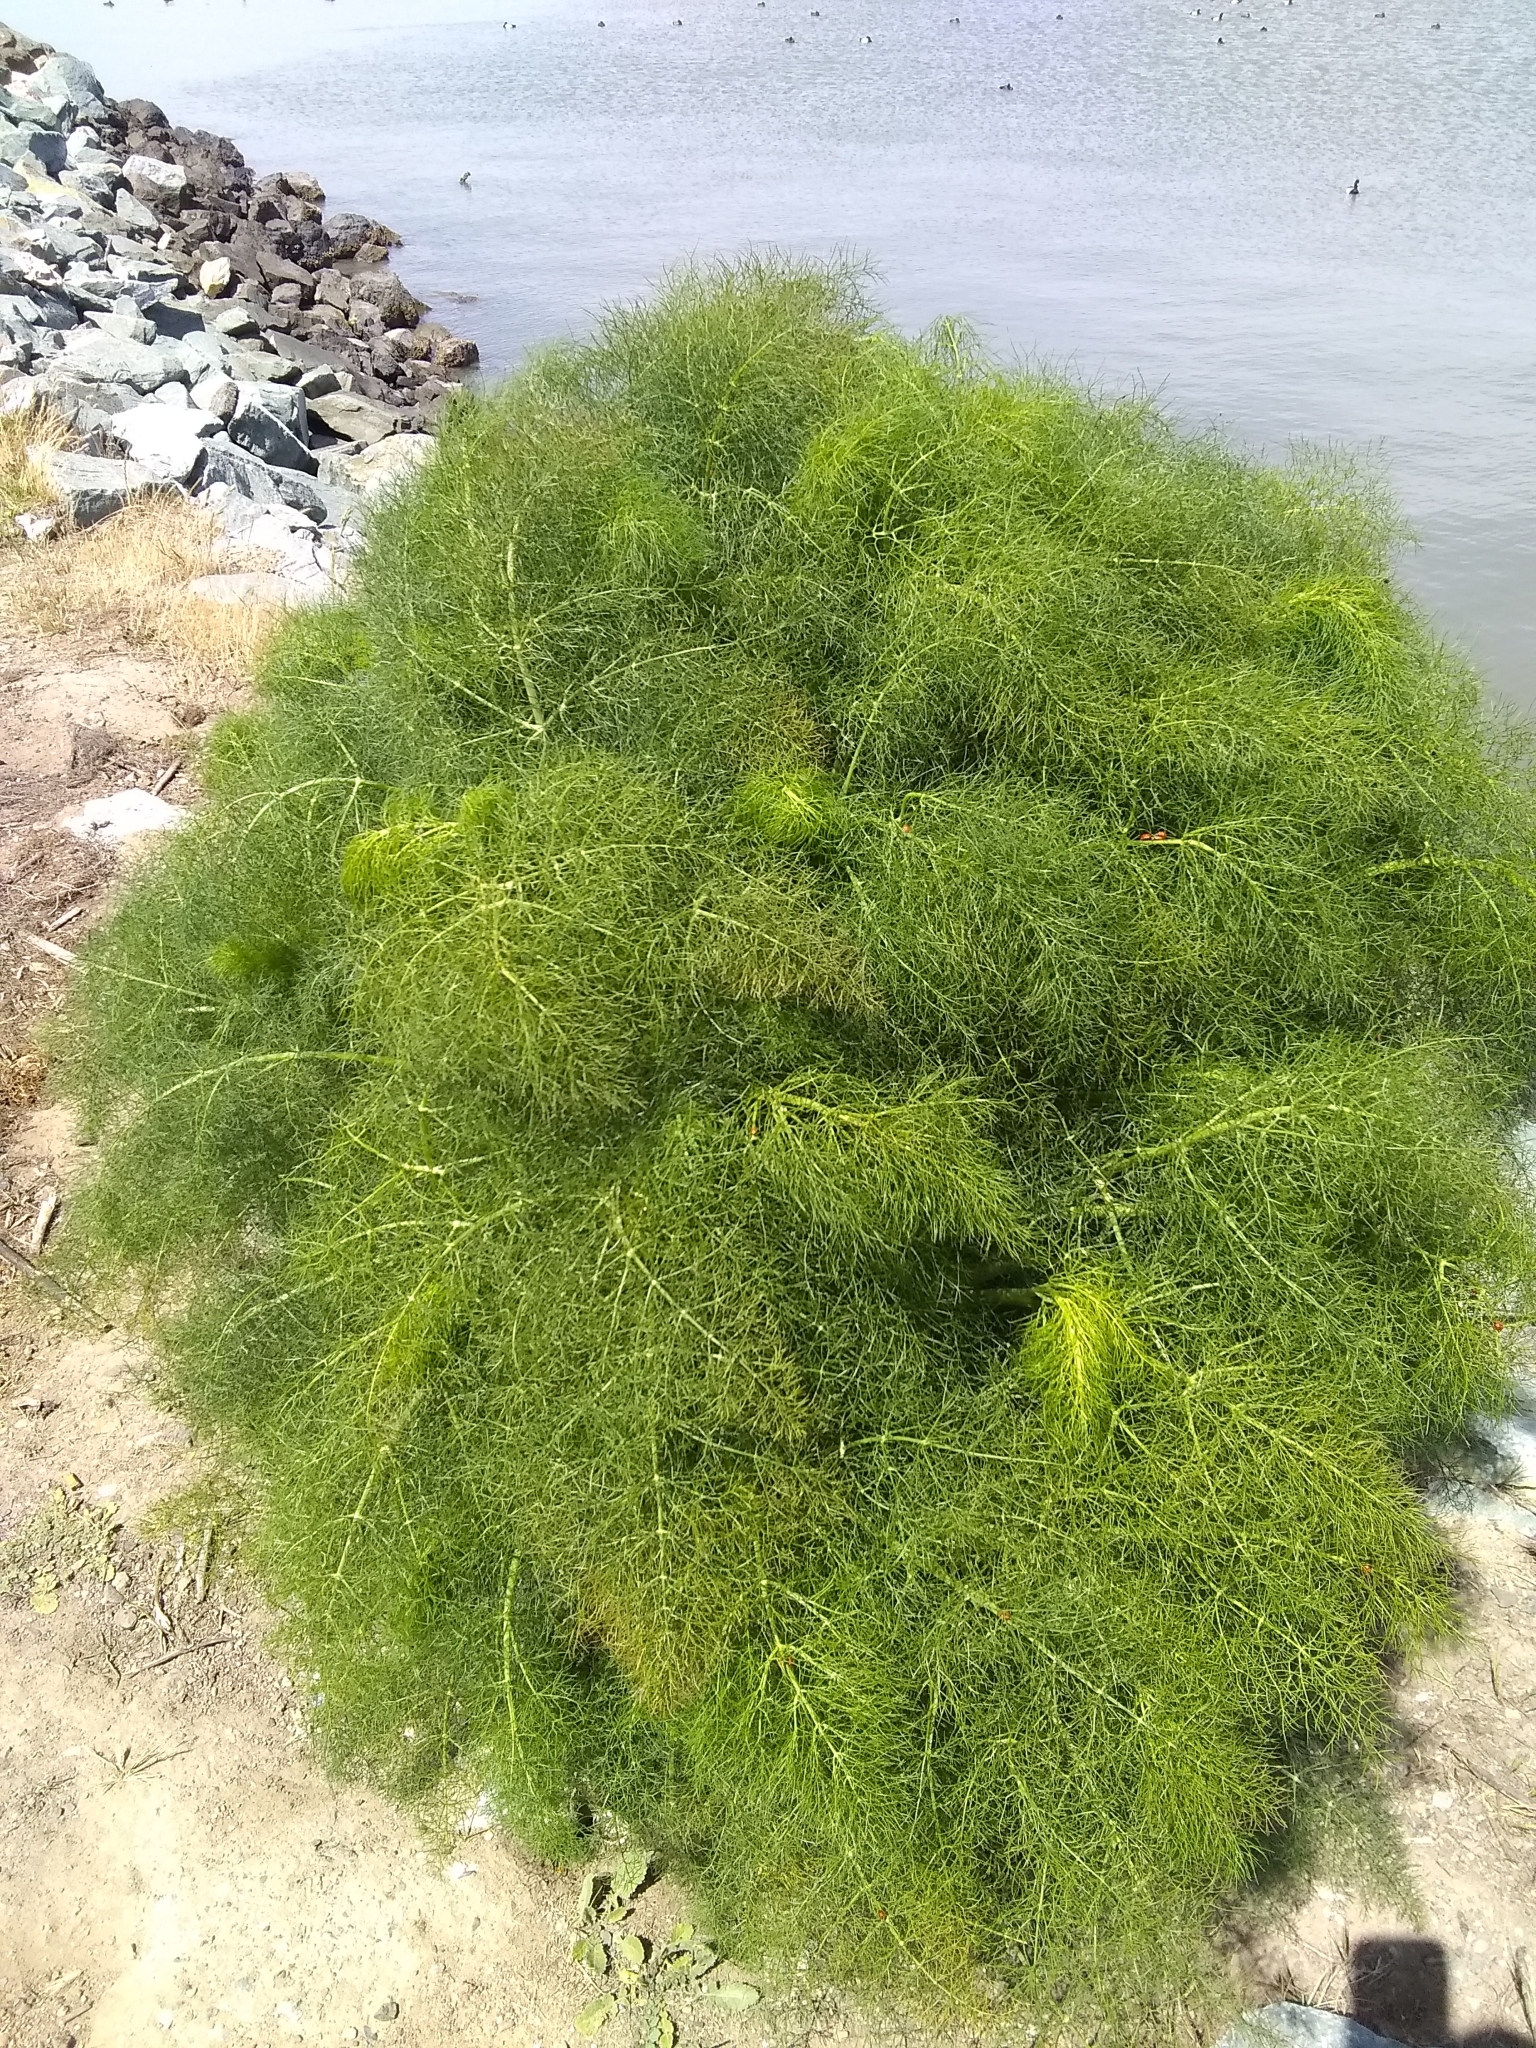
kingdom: Plantae
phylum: Tracheophyta
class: Magnoliopsida
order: Apiales
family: Apiaceae
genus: Foeniculum
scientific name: Foeniculum vulgare
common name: Fennel
